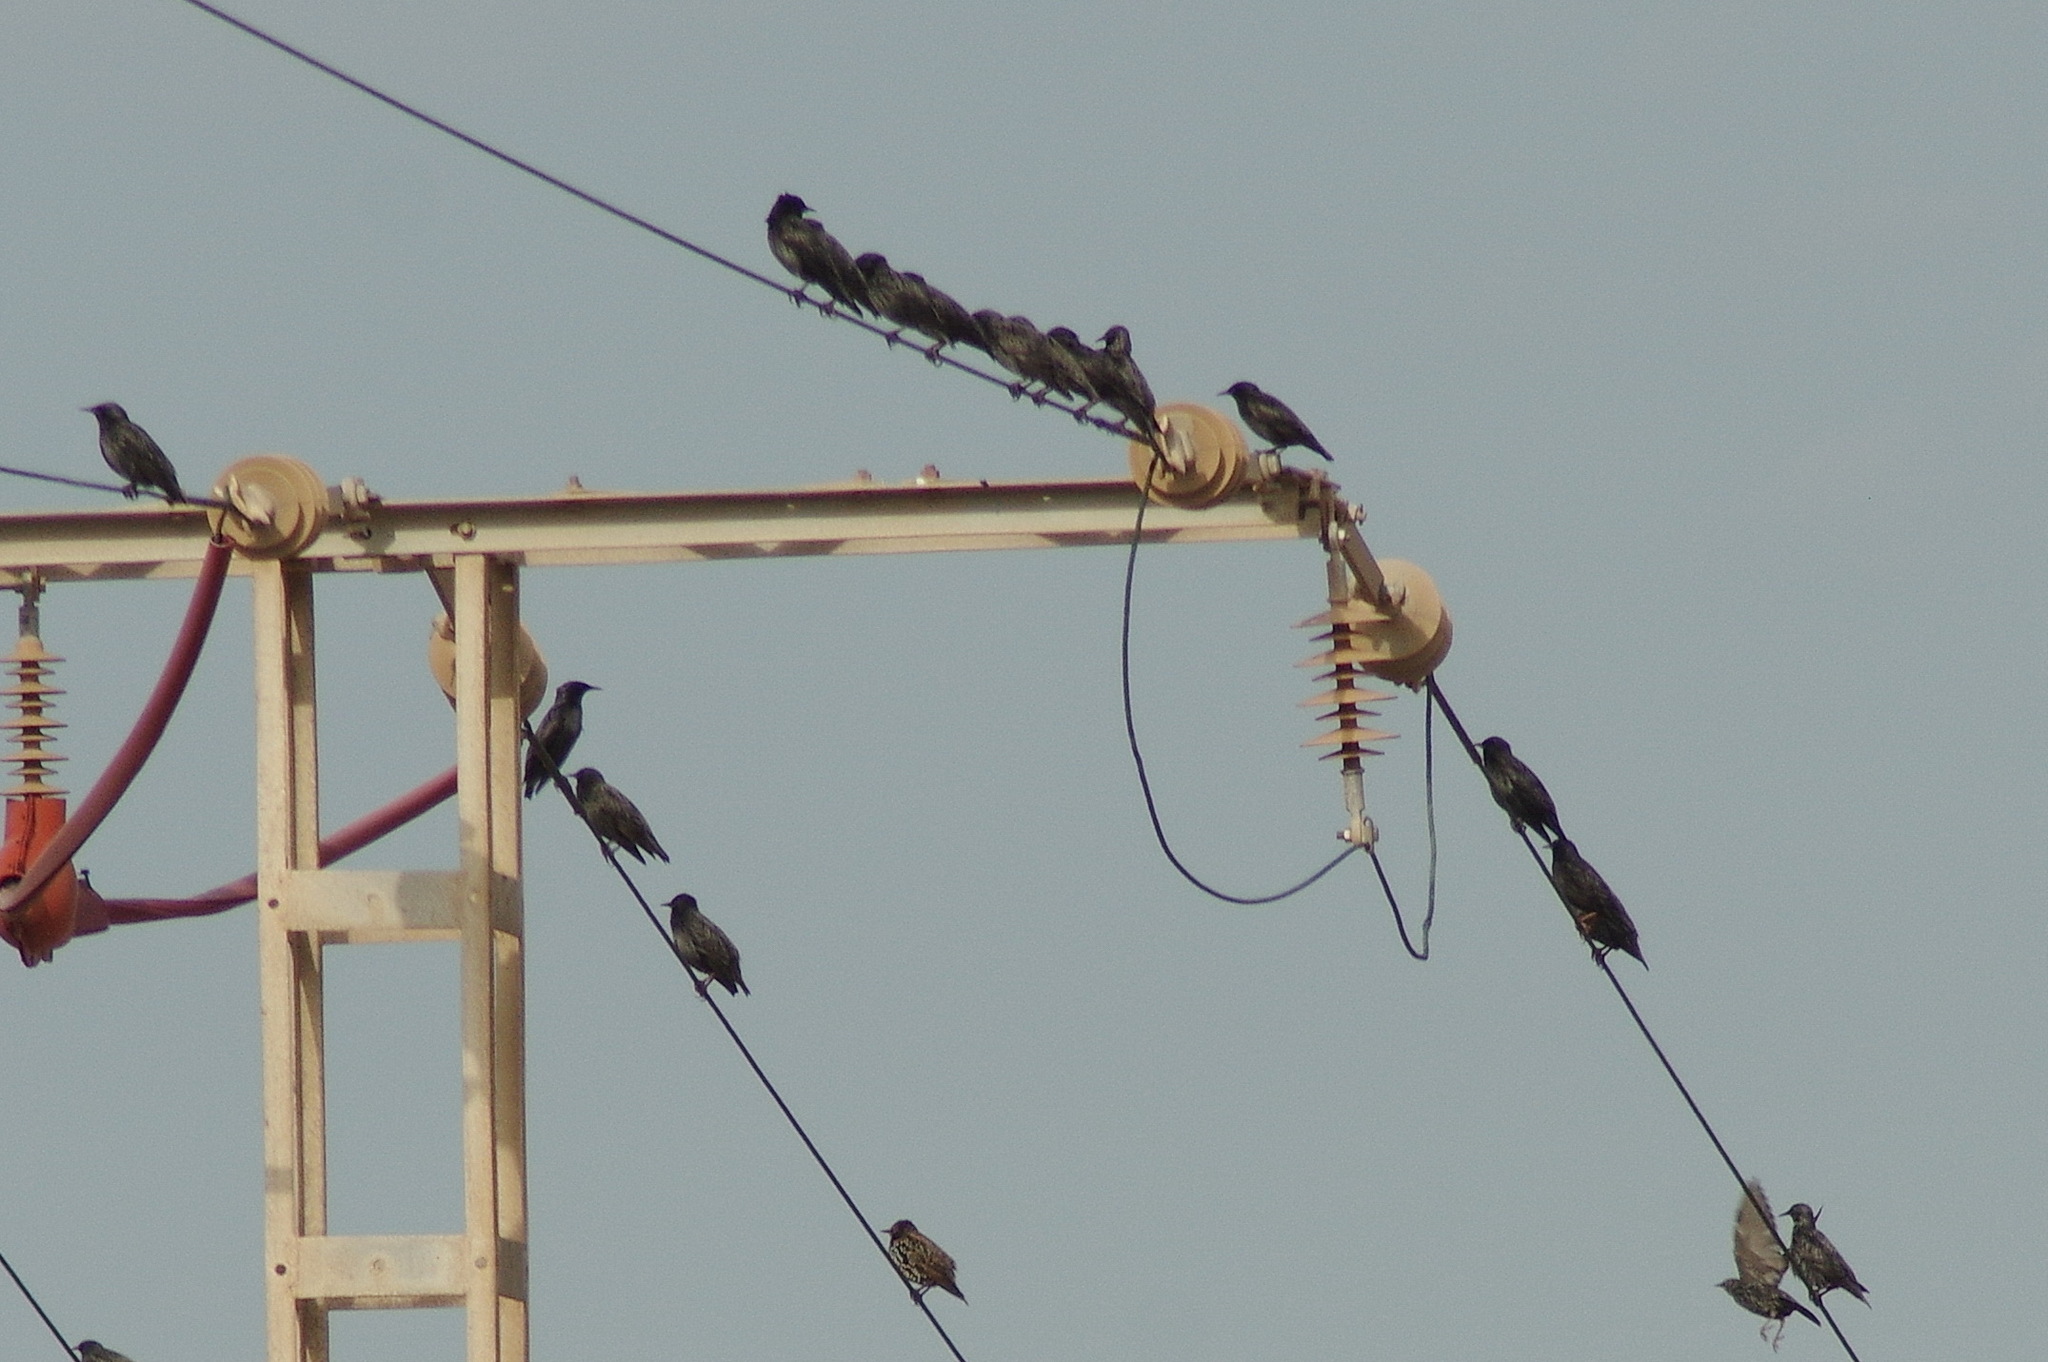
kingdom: Animalia
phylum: Chordata
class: Aves
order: Passeriformes
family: Sturnidae
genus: Sturnus
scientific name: Sturnus unicolor
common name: Spotless starling
